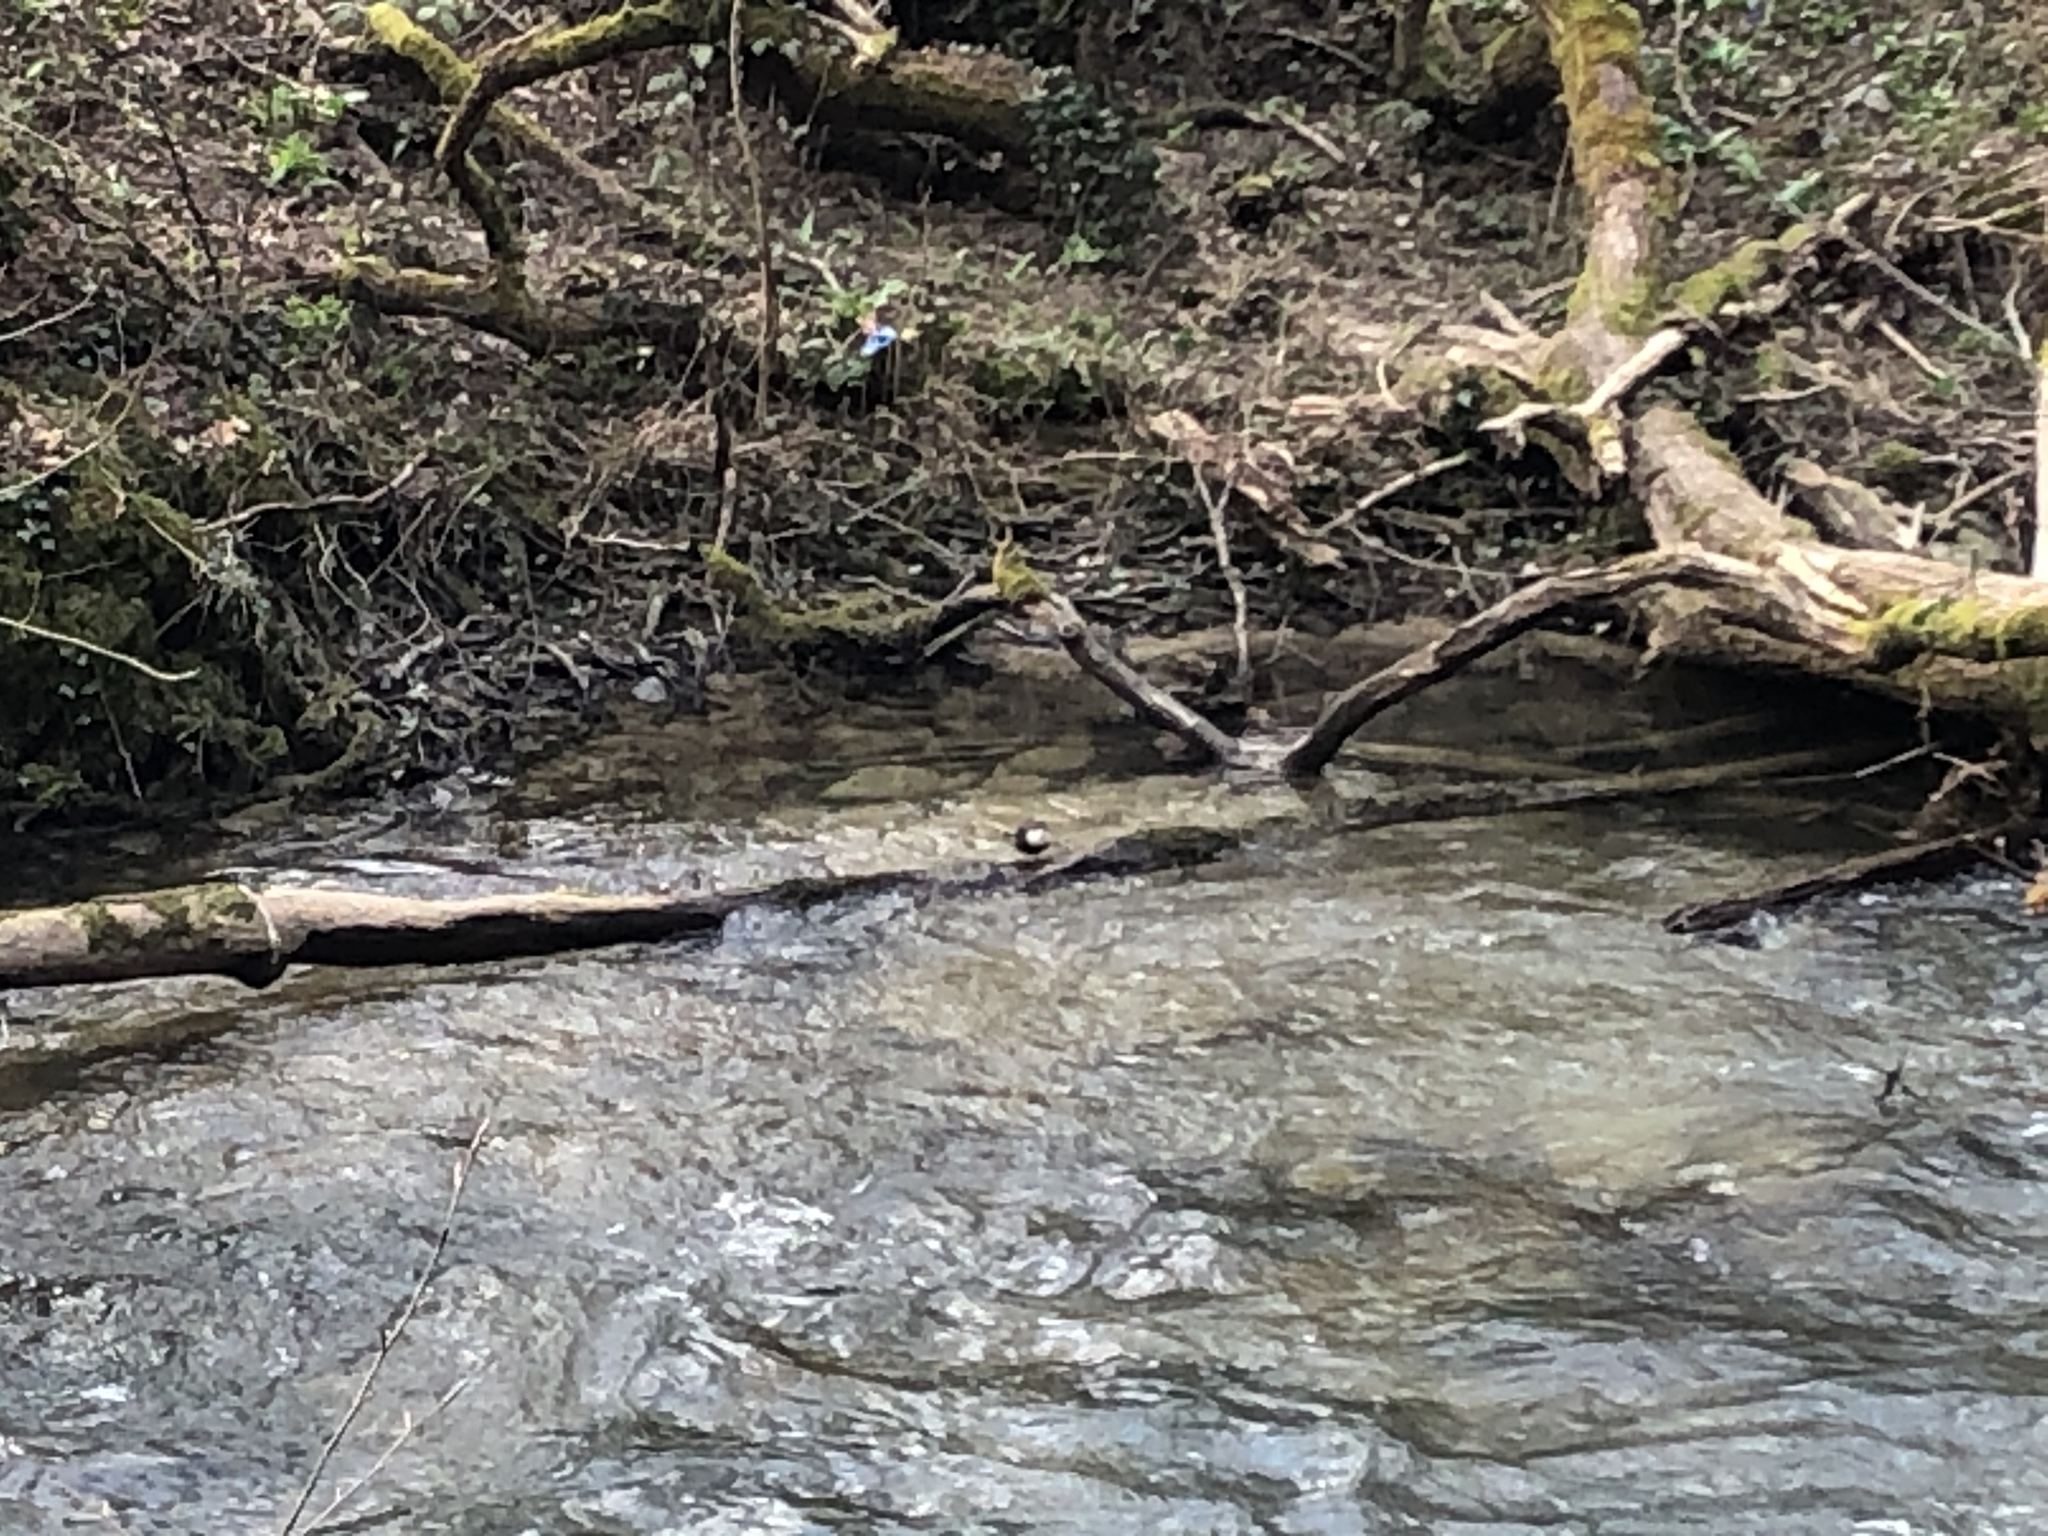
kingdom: Animalia
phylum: Chordata
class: Aves
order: Passeriformes
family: Cinclidae
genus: Cinclus
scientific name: Cinclus cinclus
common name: White-throated dipper
